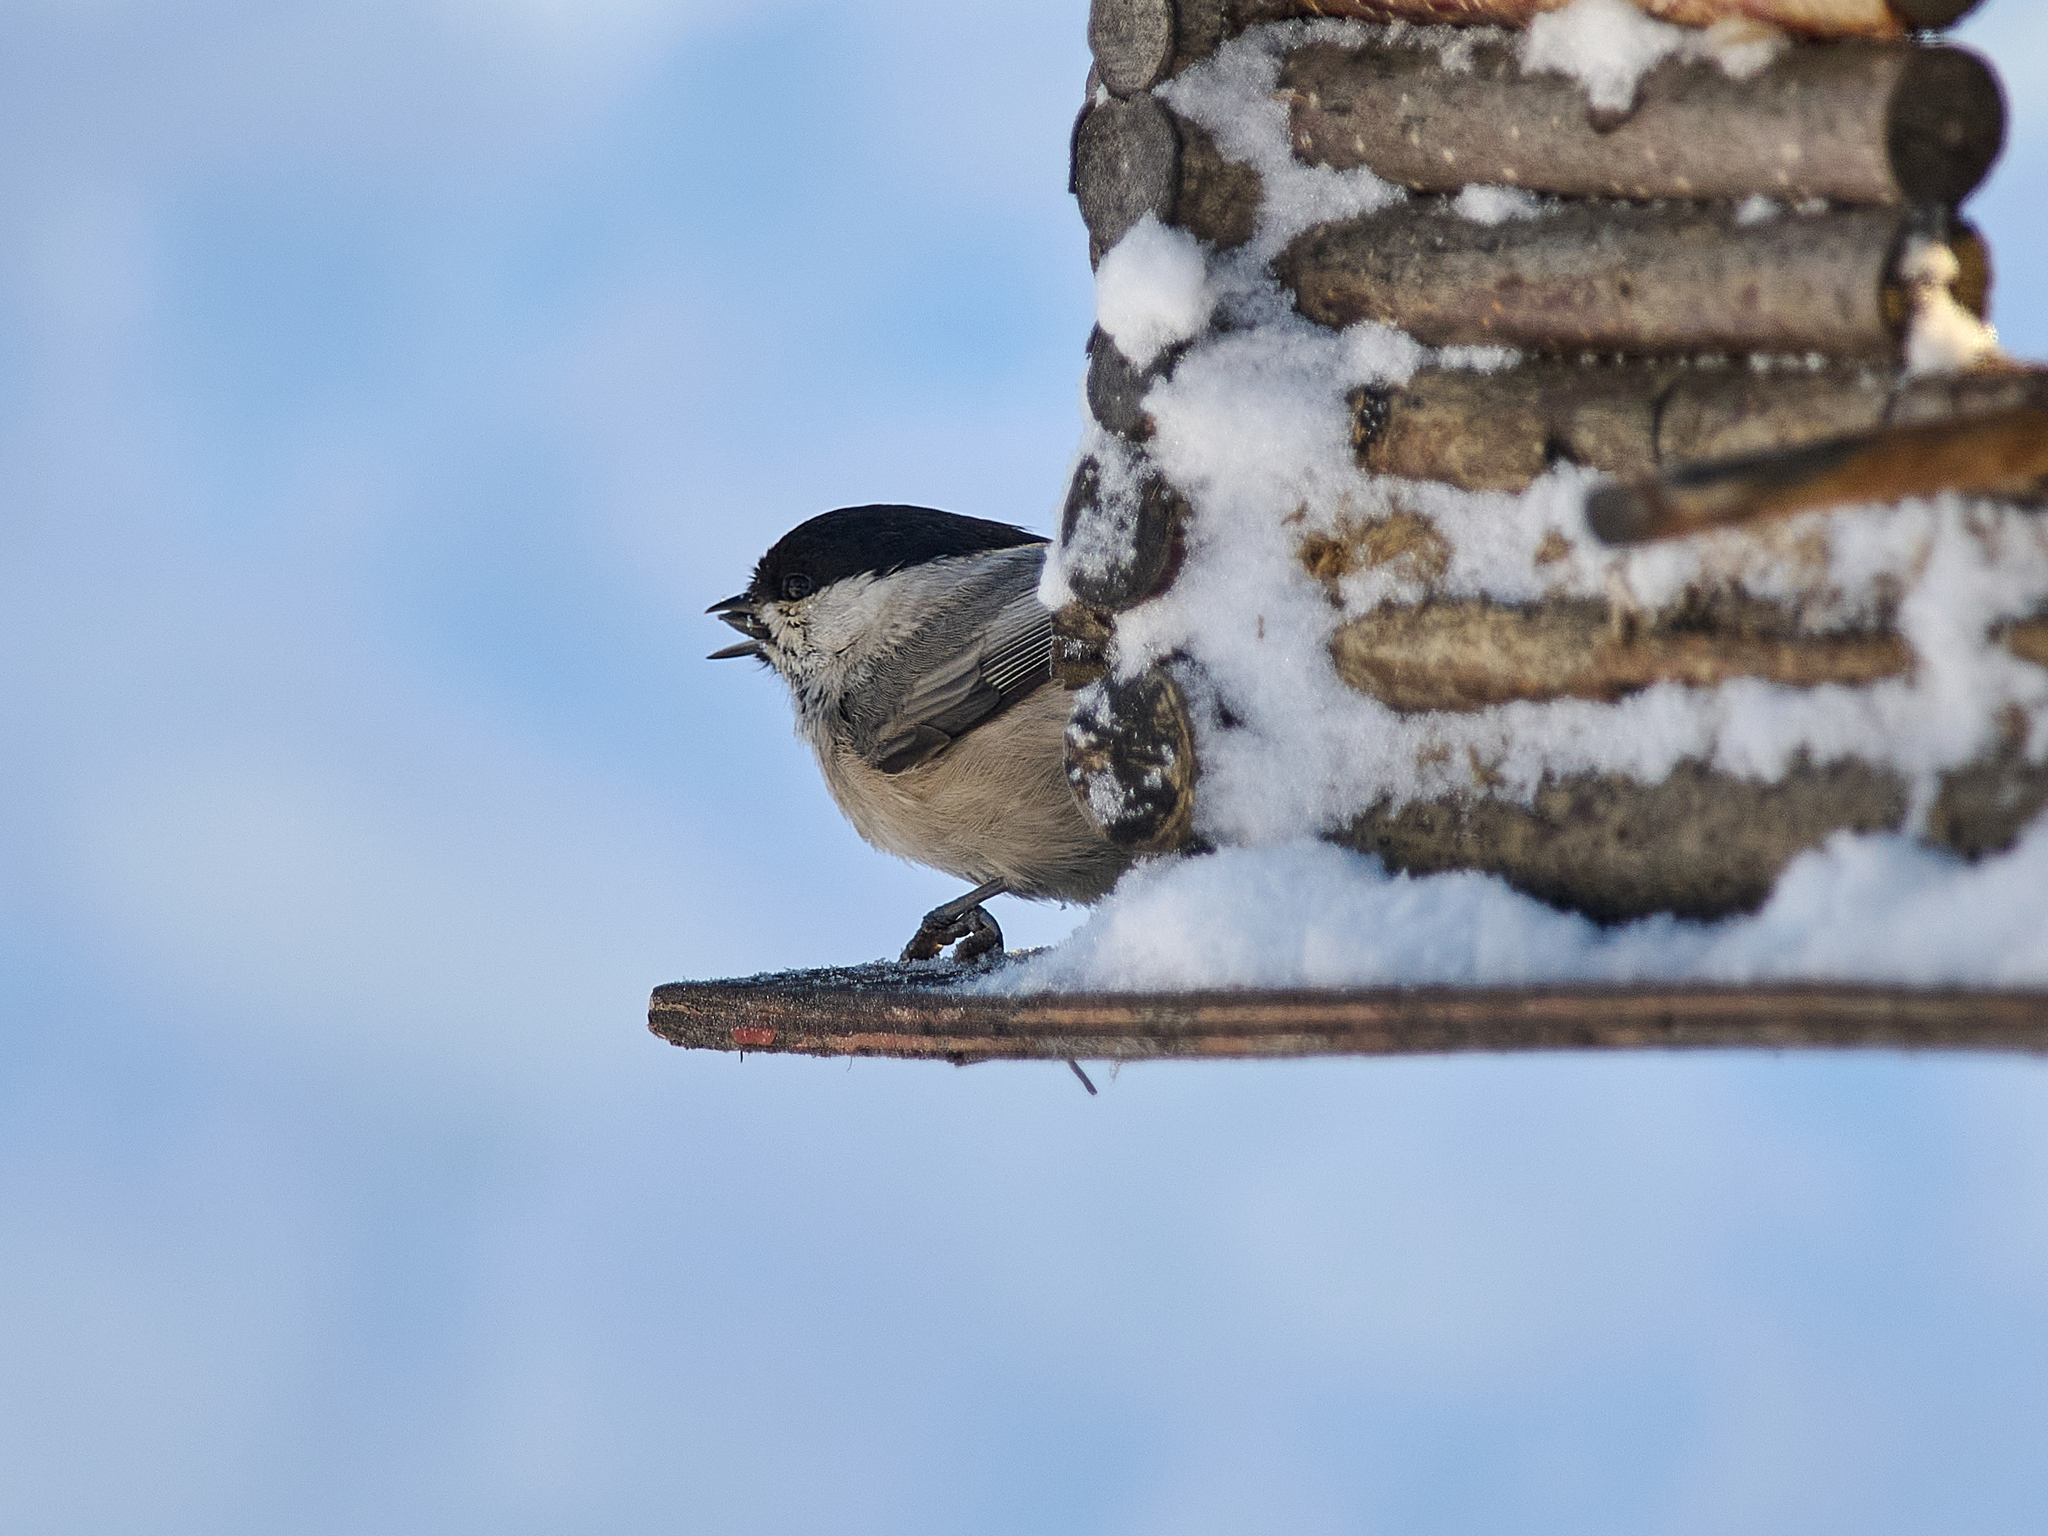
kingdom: Animalia
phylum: Chordata
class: Aves
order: Passeriformes
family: Paridae
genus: Poecile
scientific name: Poecile montanus
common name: Willow tit
